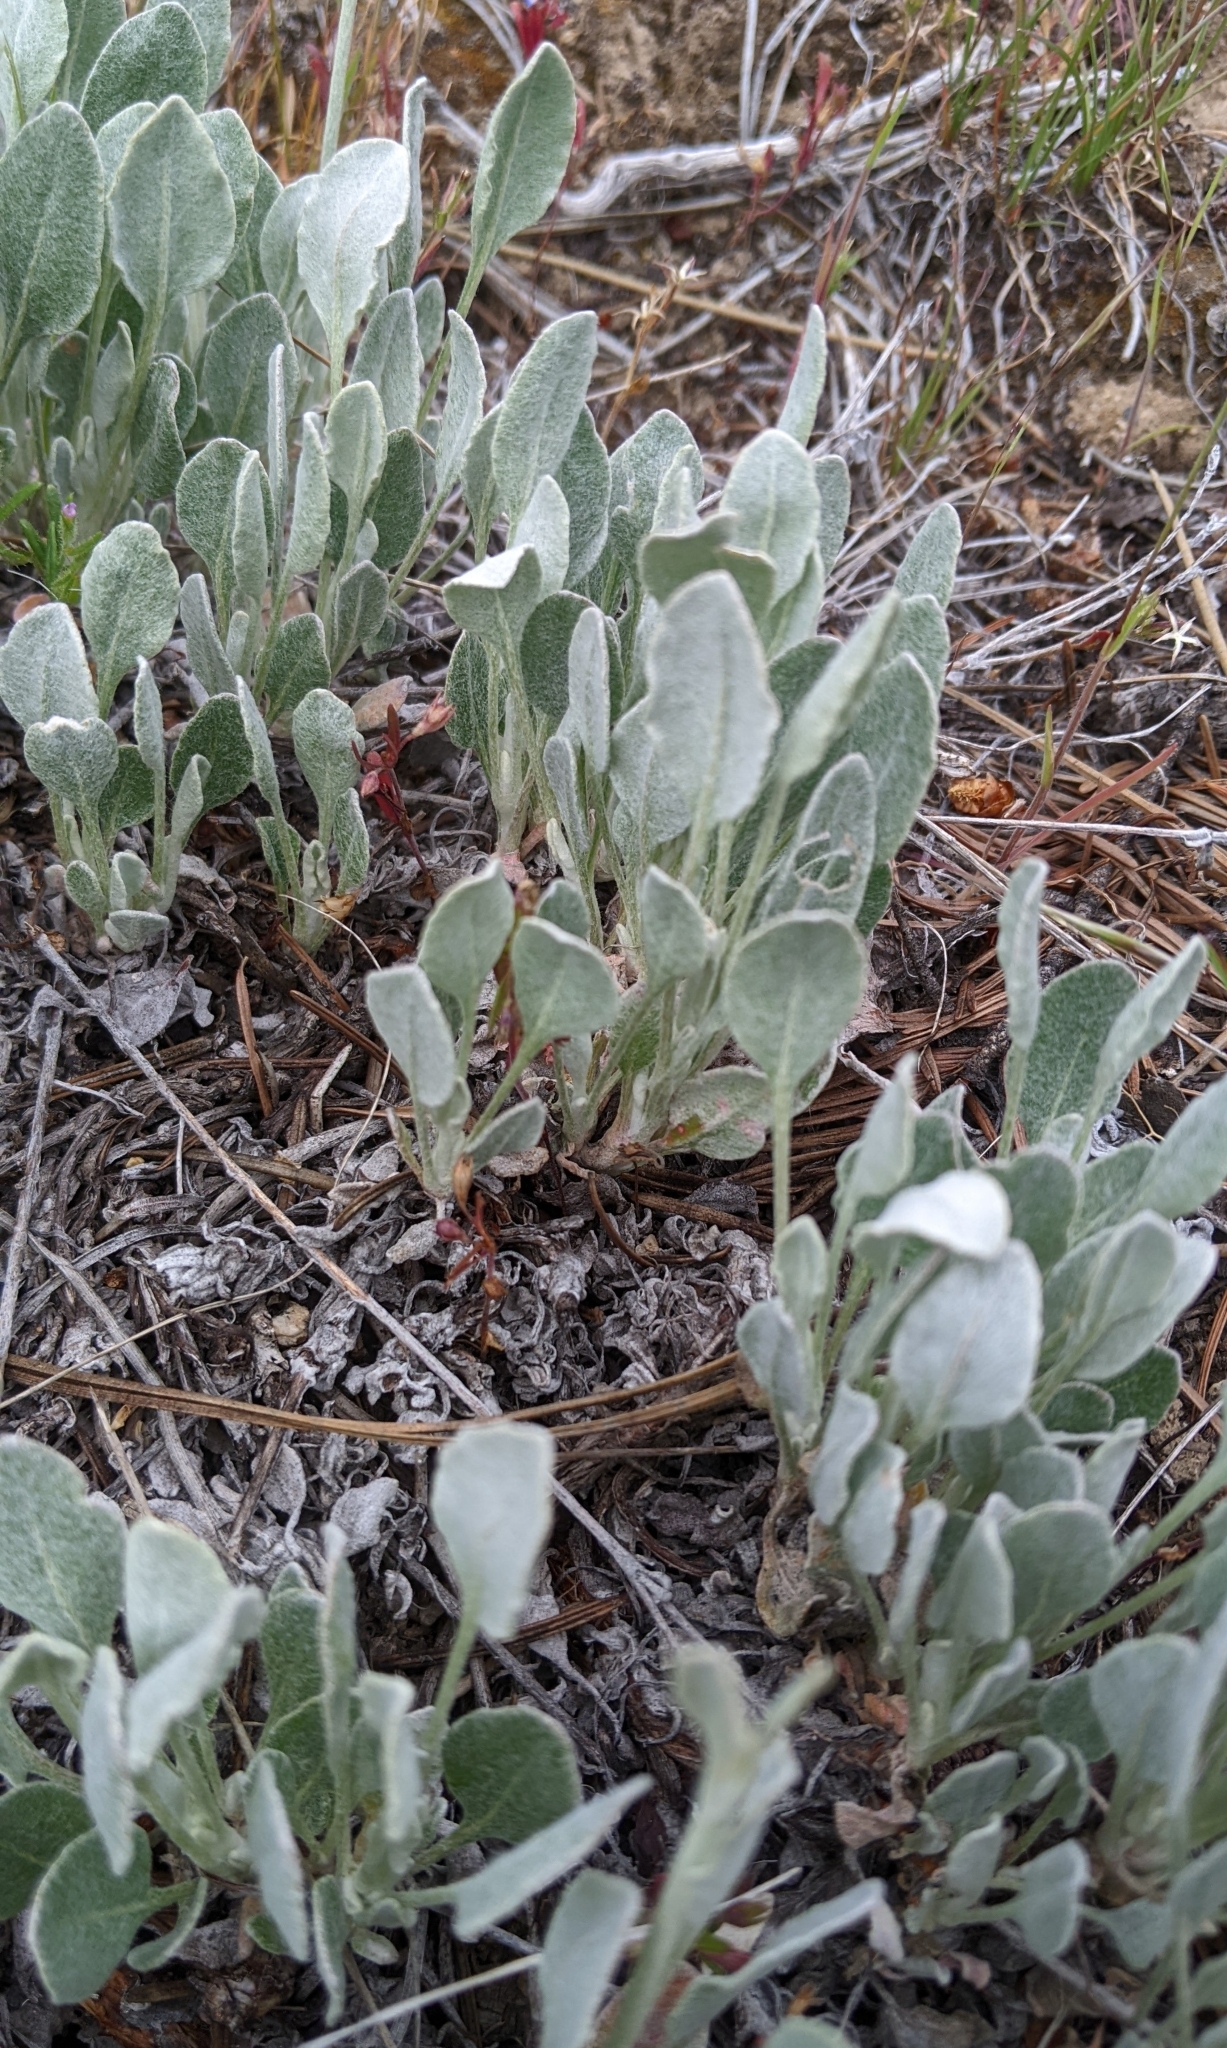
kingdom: Plantae
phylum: Tracheophyta
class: Magnoliopsida
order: Caryophyllales
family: Polygonaceae
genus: Eriogonum
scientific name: Eriogonum niveum
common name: Snow wild buckwheat
